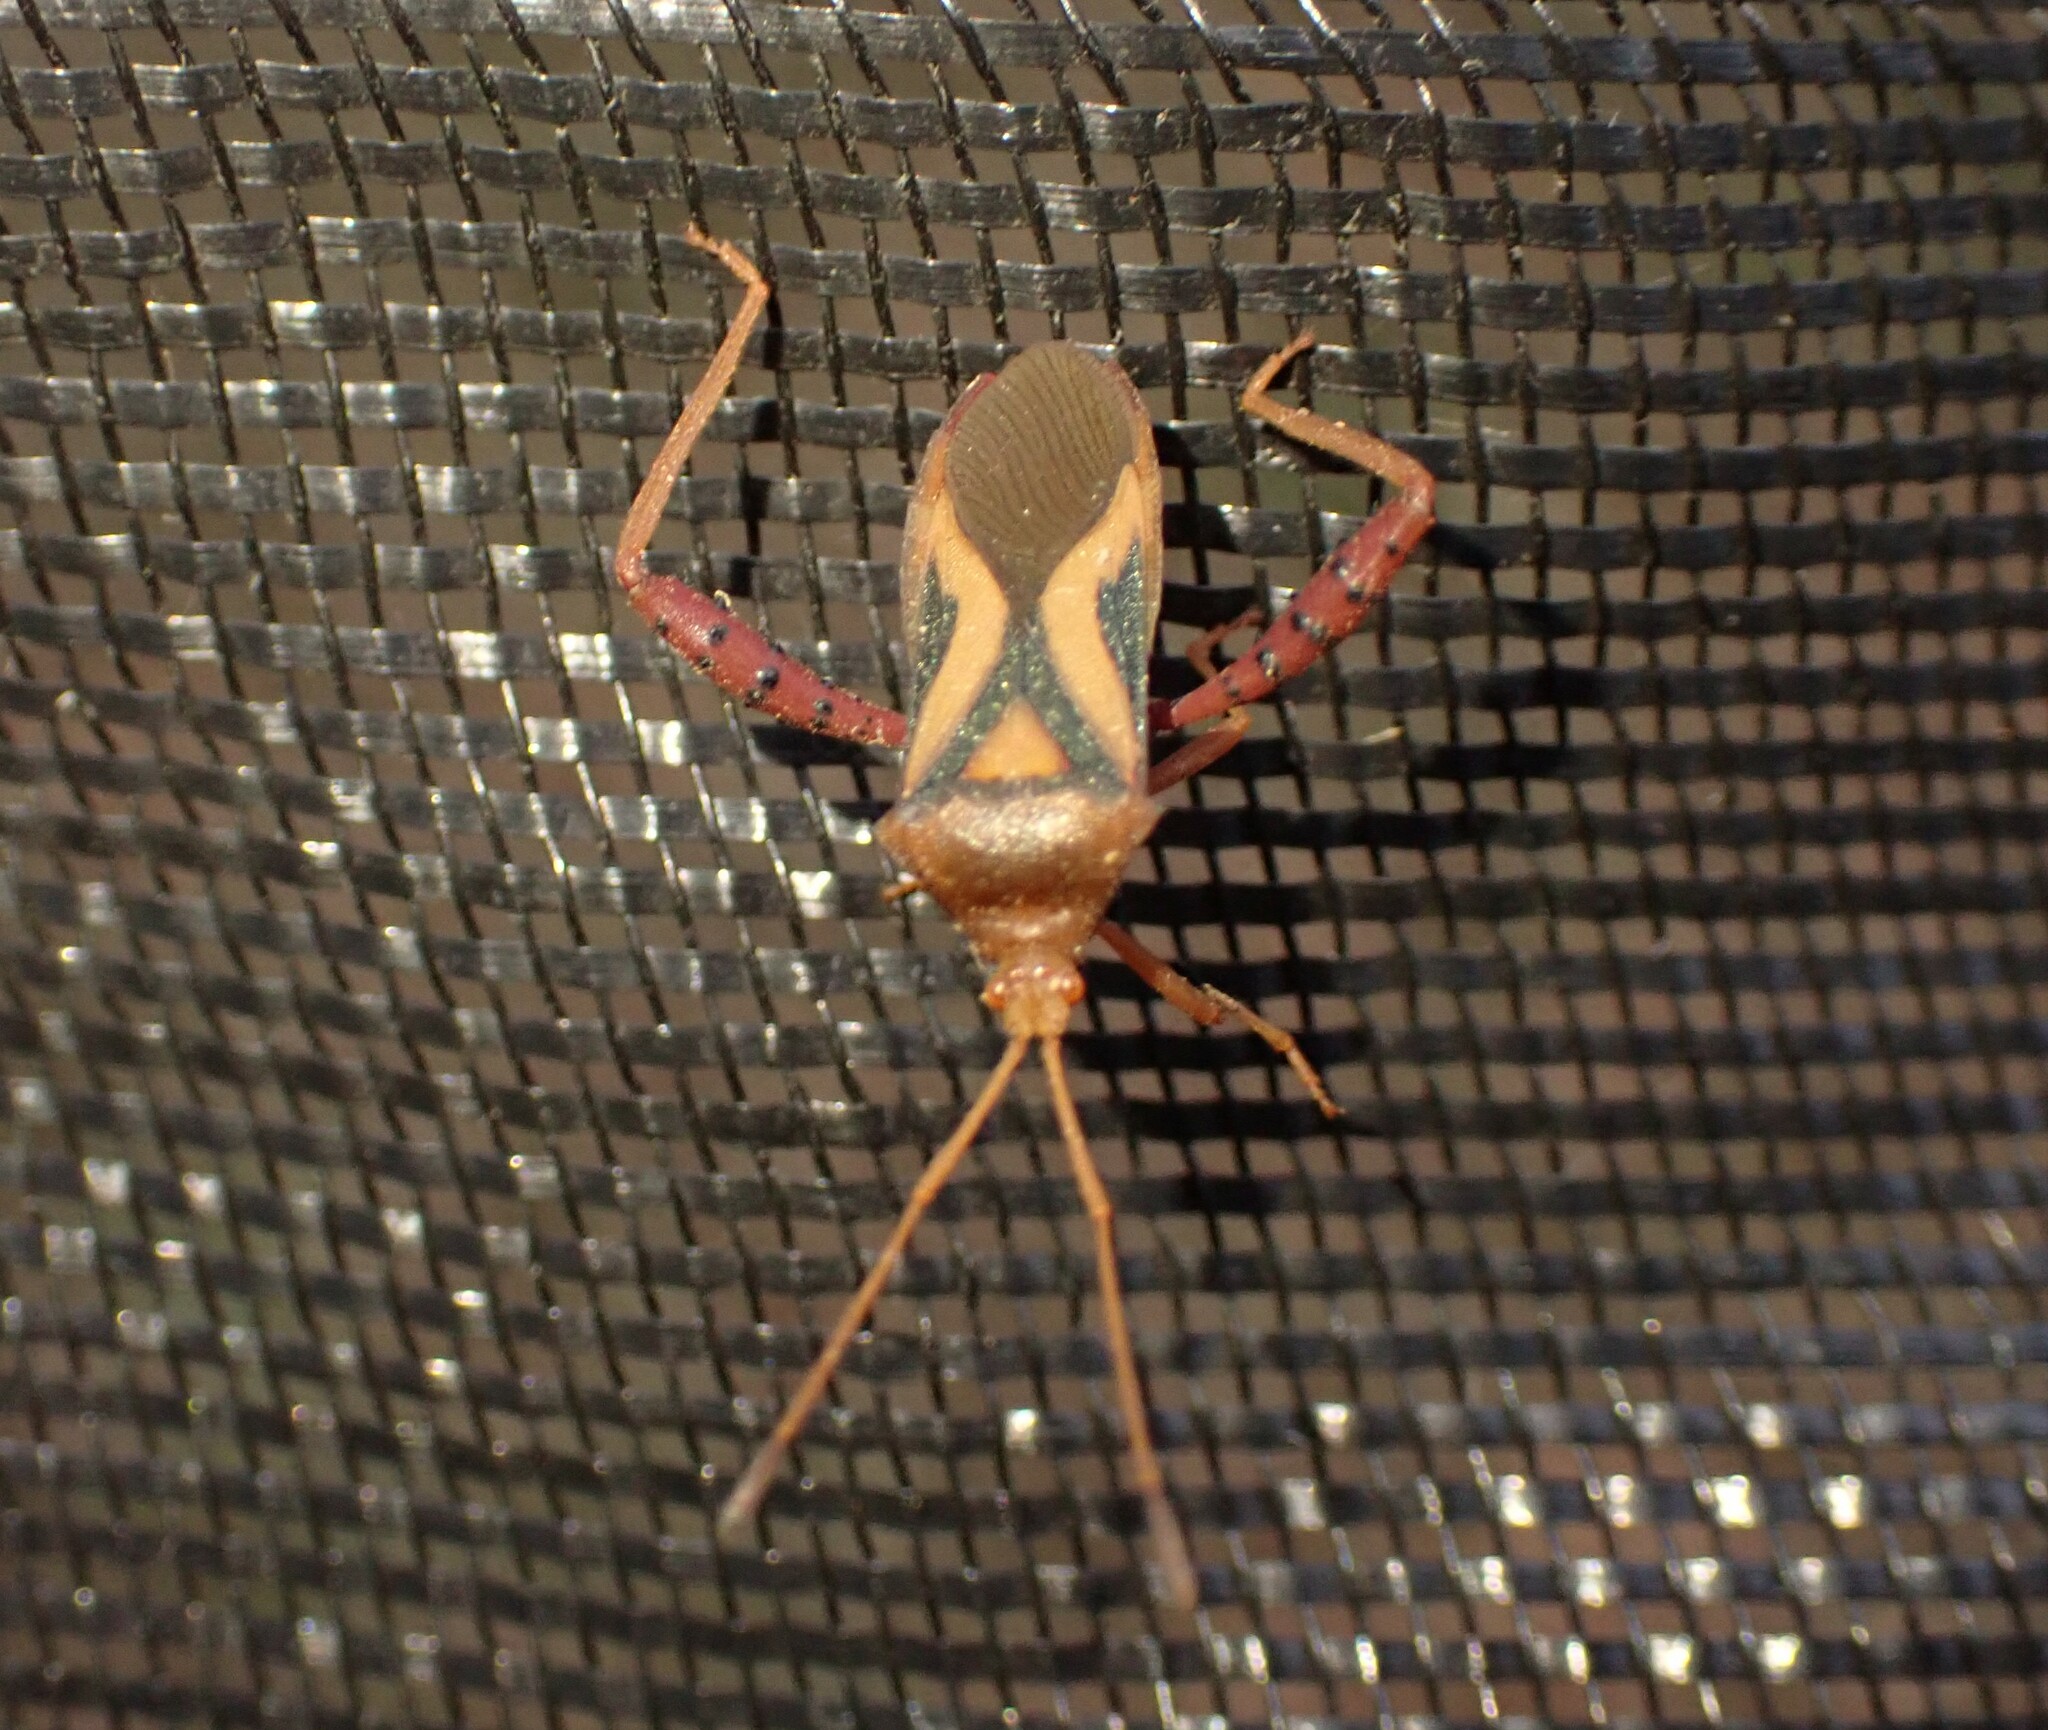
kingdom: Animalia
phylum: Arthropoda
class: Insecta
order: Hemiptera
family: Coreidae
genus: Crinocerus
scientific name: Crinocerus sanctus
